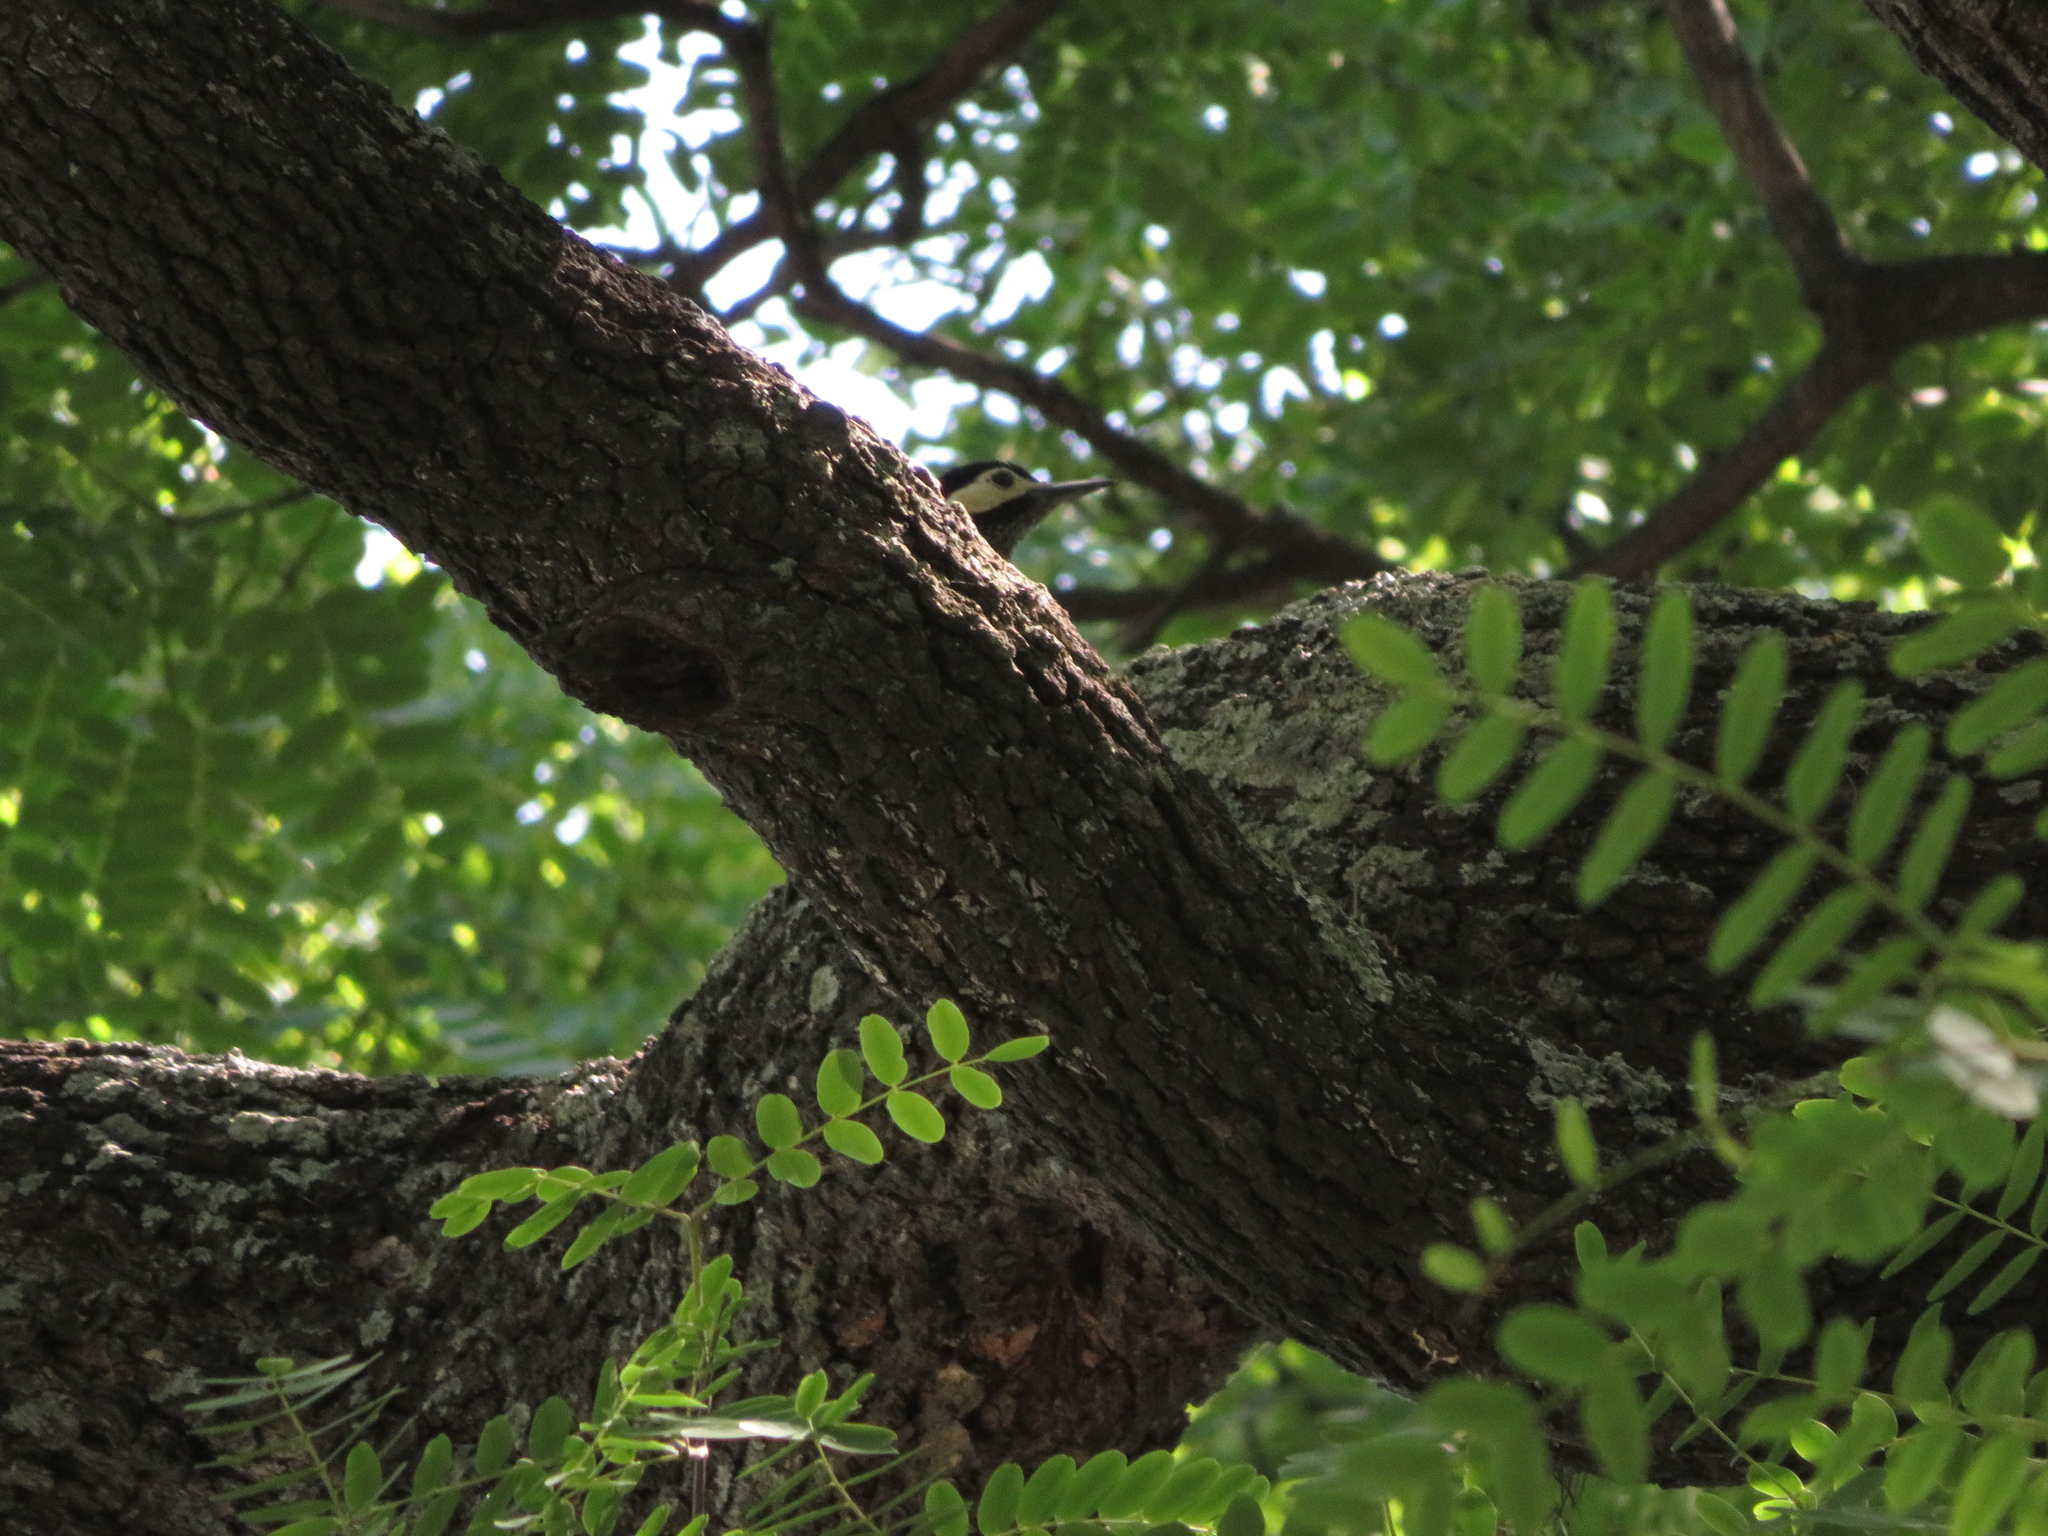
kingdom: Animalia
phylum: Chordata
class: Aves
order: Piciformes
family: Picidae
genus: Colaptes
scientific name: Colaptes melanochloros
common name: Green-barred woodpecker
